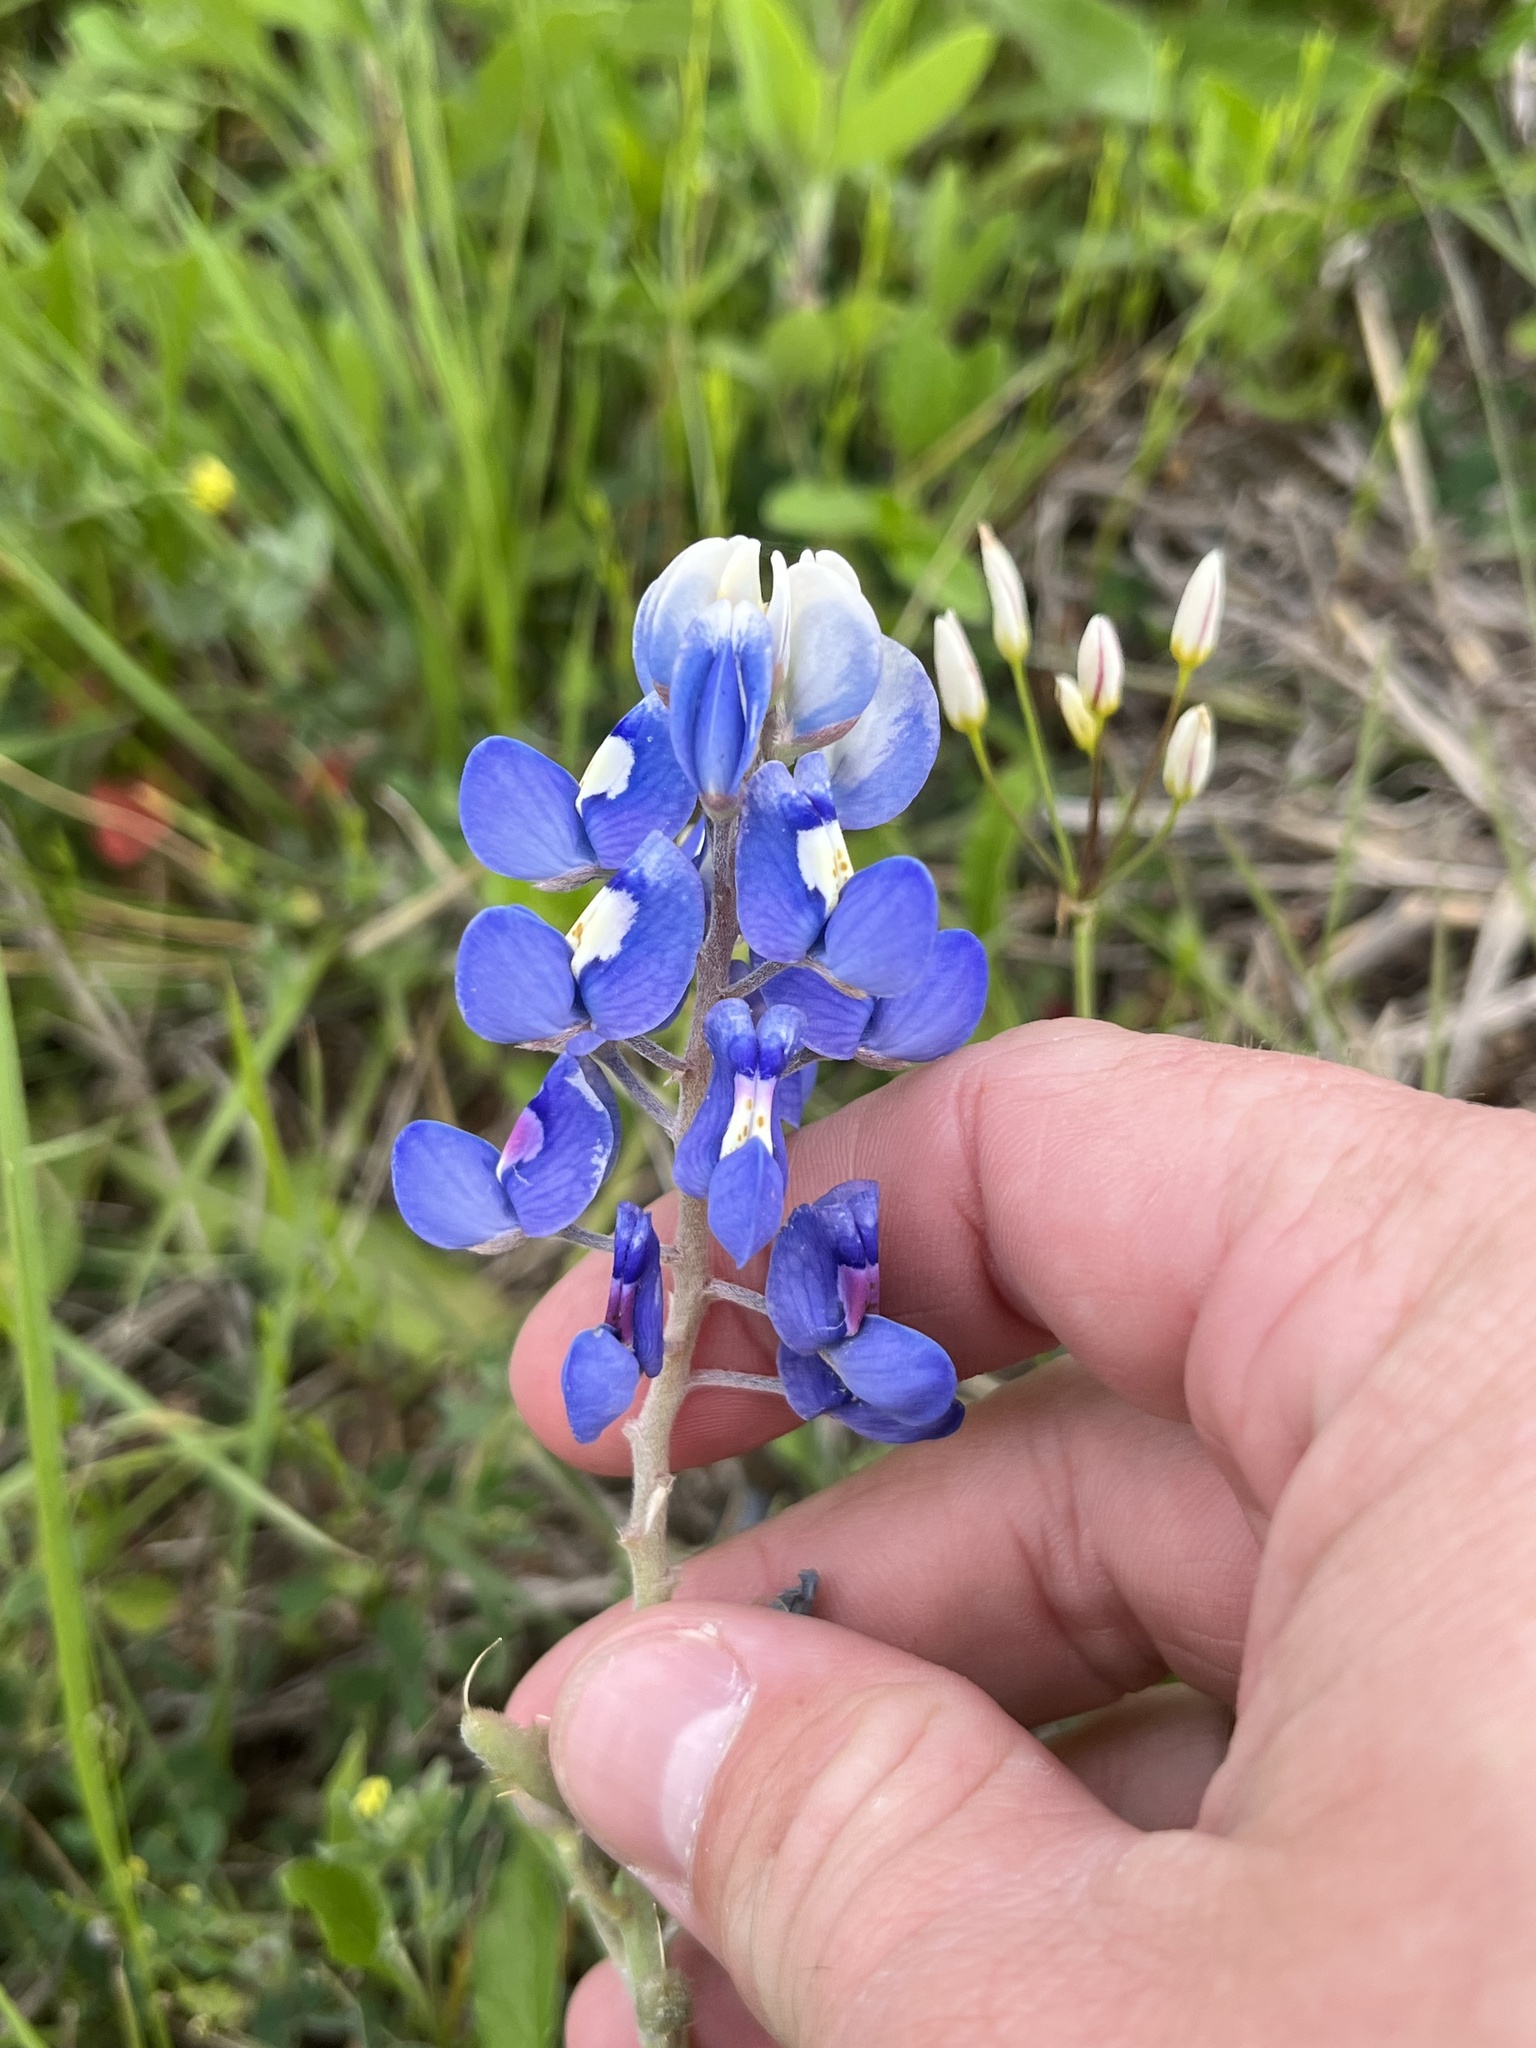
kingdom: Plantae
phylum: Tracheophyta
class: Magnoliopsida
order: Fabales
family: Fabaceae
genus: Lupinus
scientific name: Lupinus texensis
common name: Texas bluebonnet
